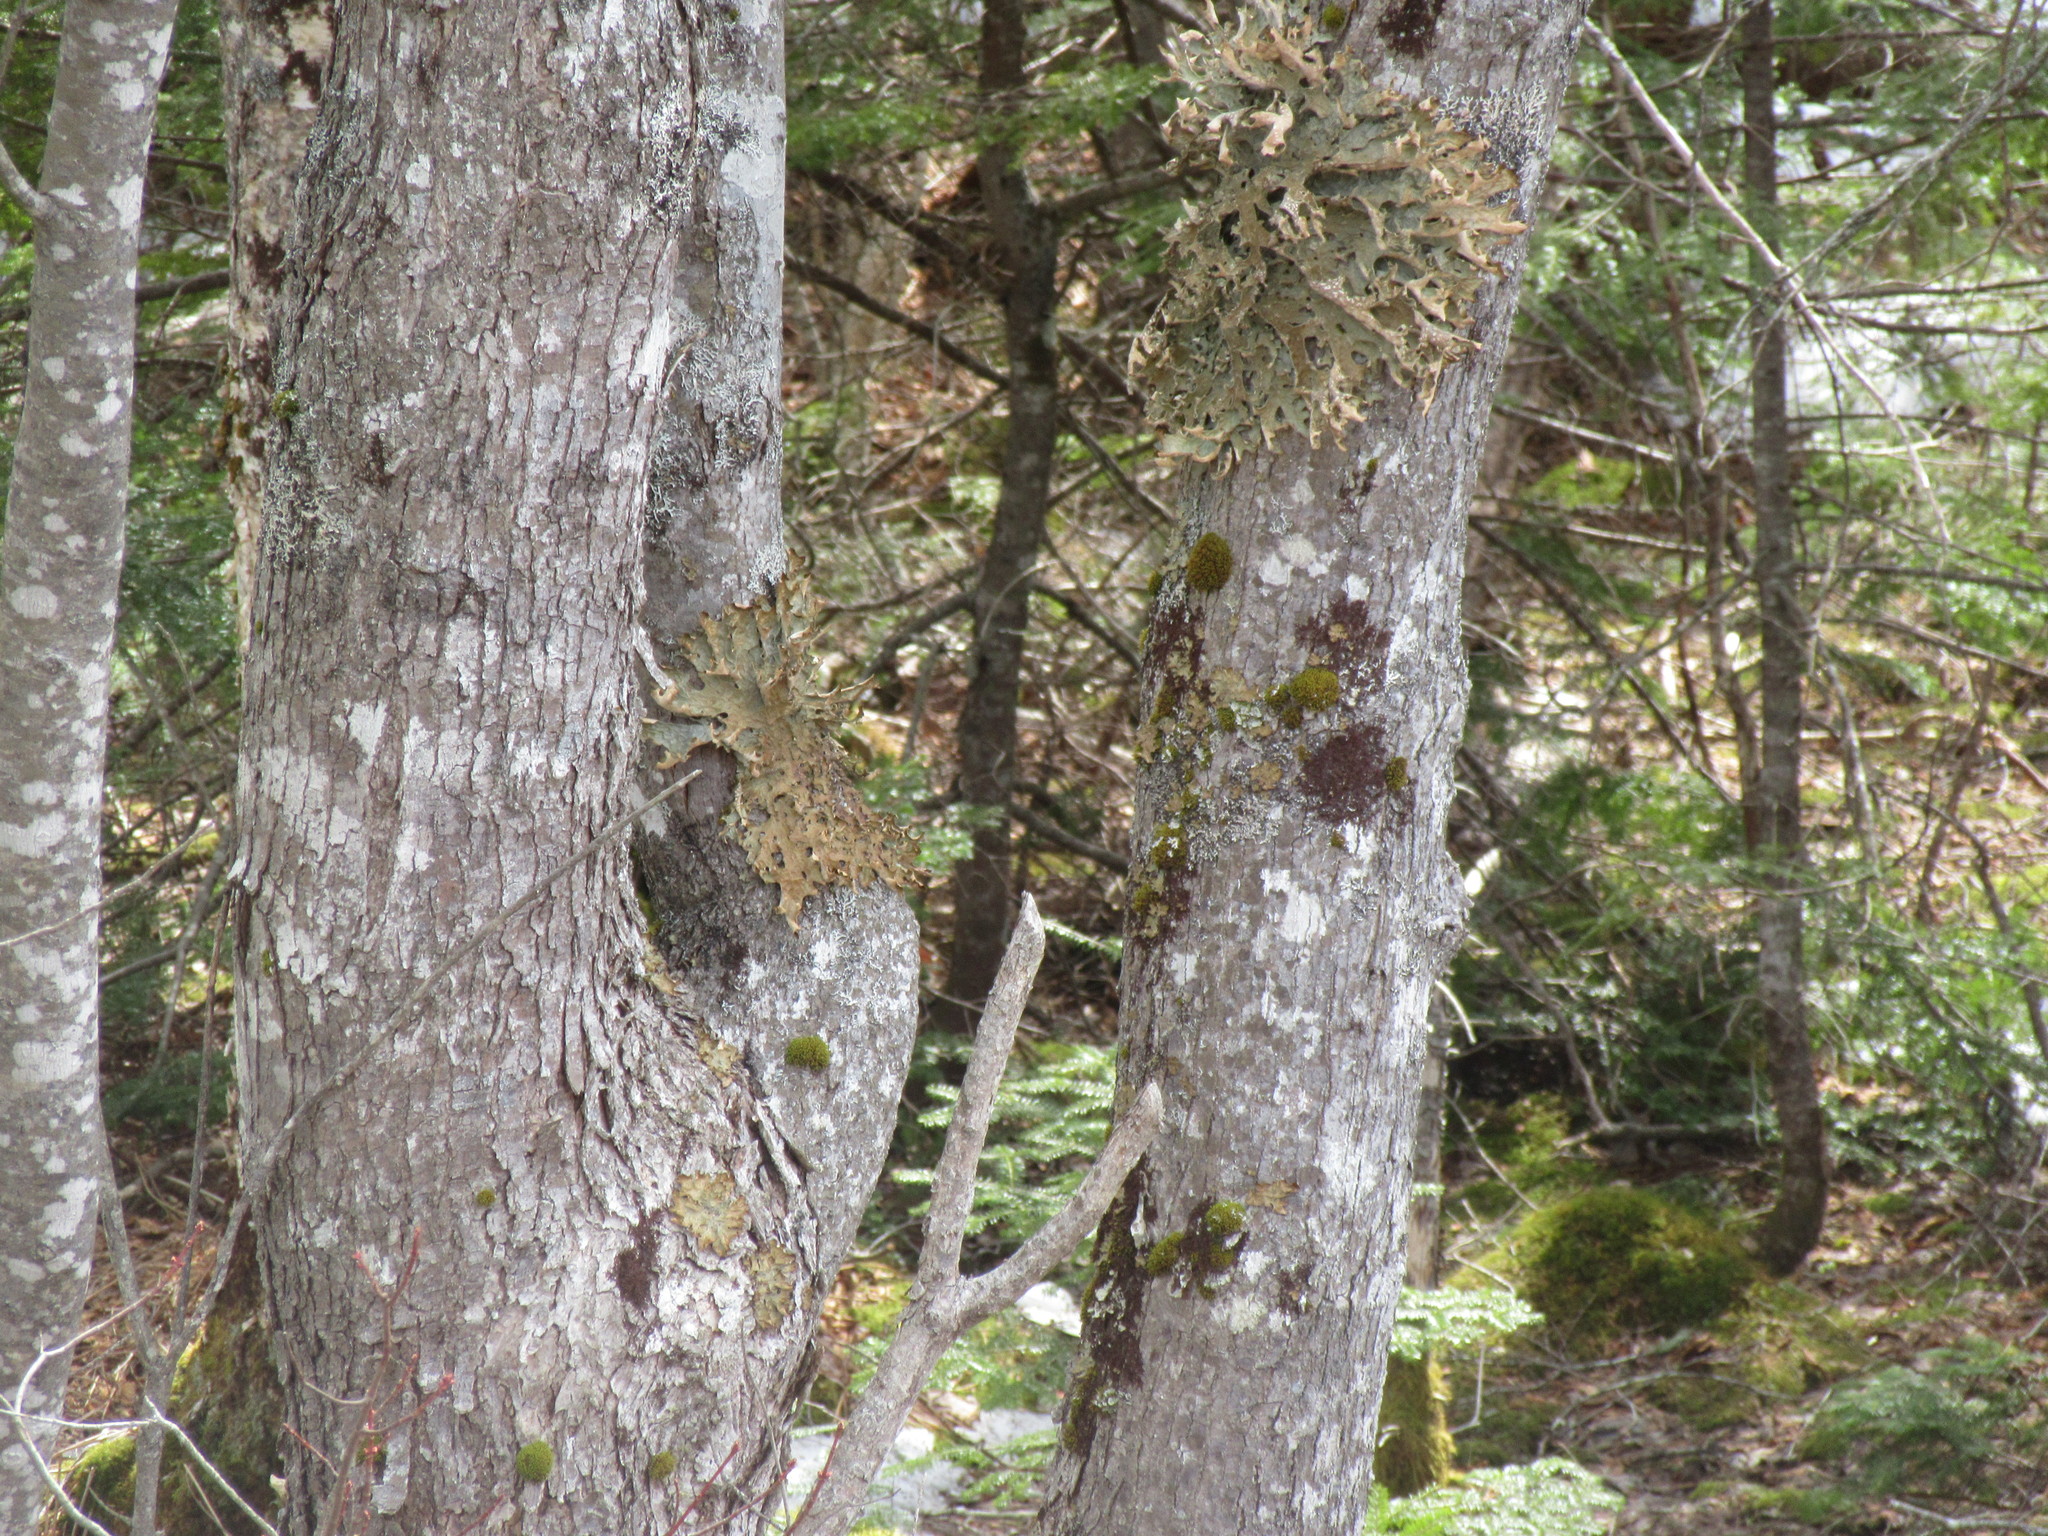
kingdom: Fungi
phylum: Ascomycota
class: Lecanoromycetes
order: Peltigerales
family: Lobariaceae
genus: Lobaria
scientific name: Lobaria pulmonaria
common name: Lungwort
